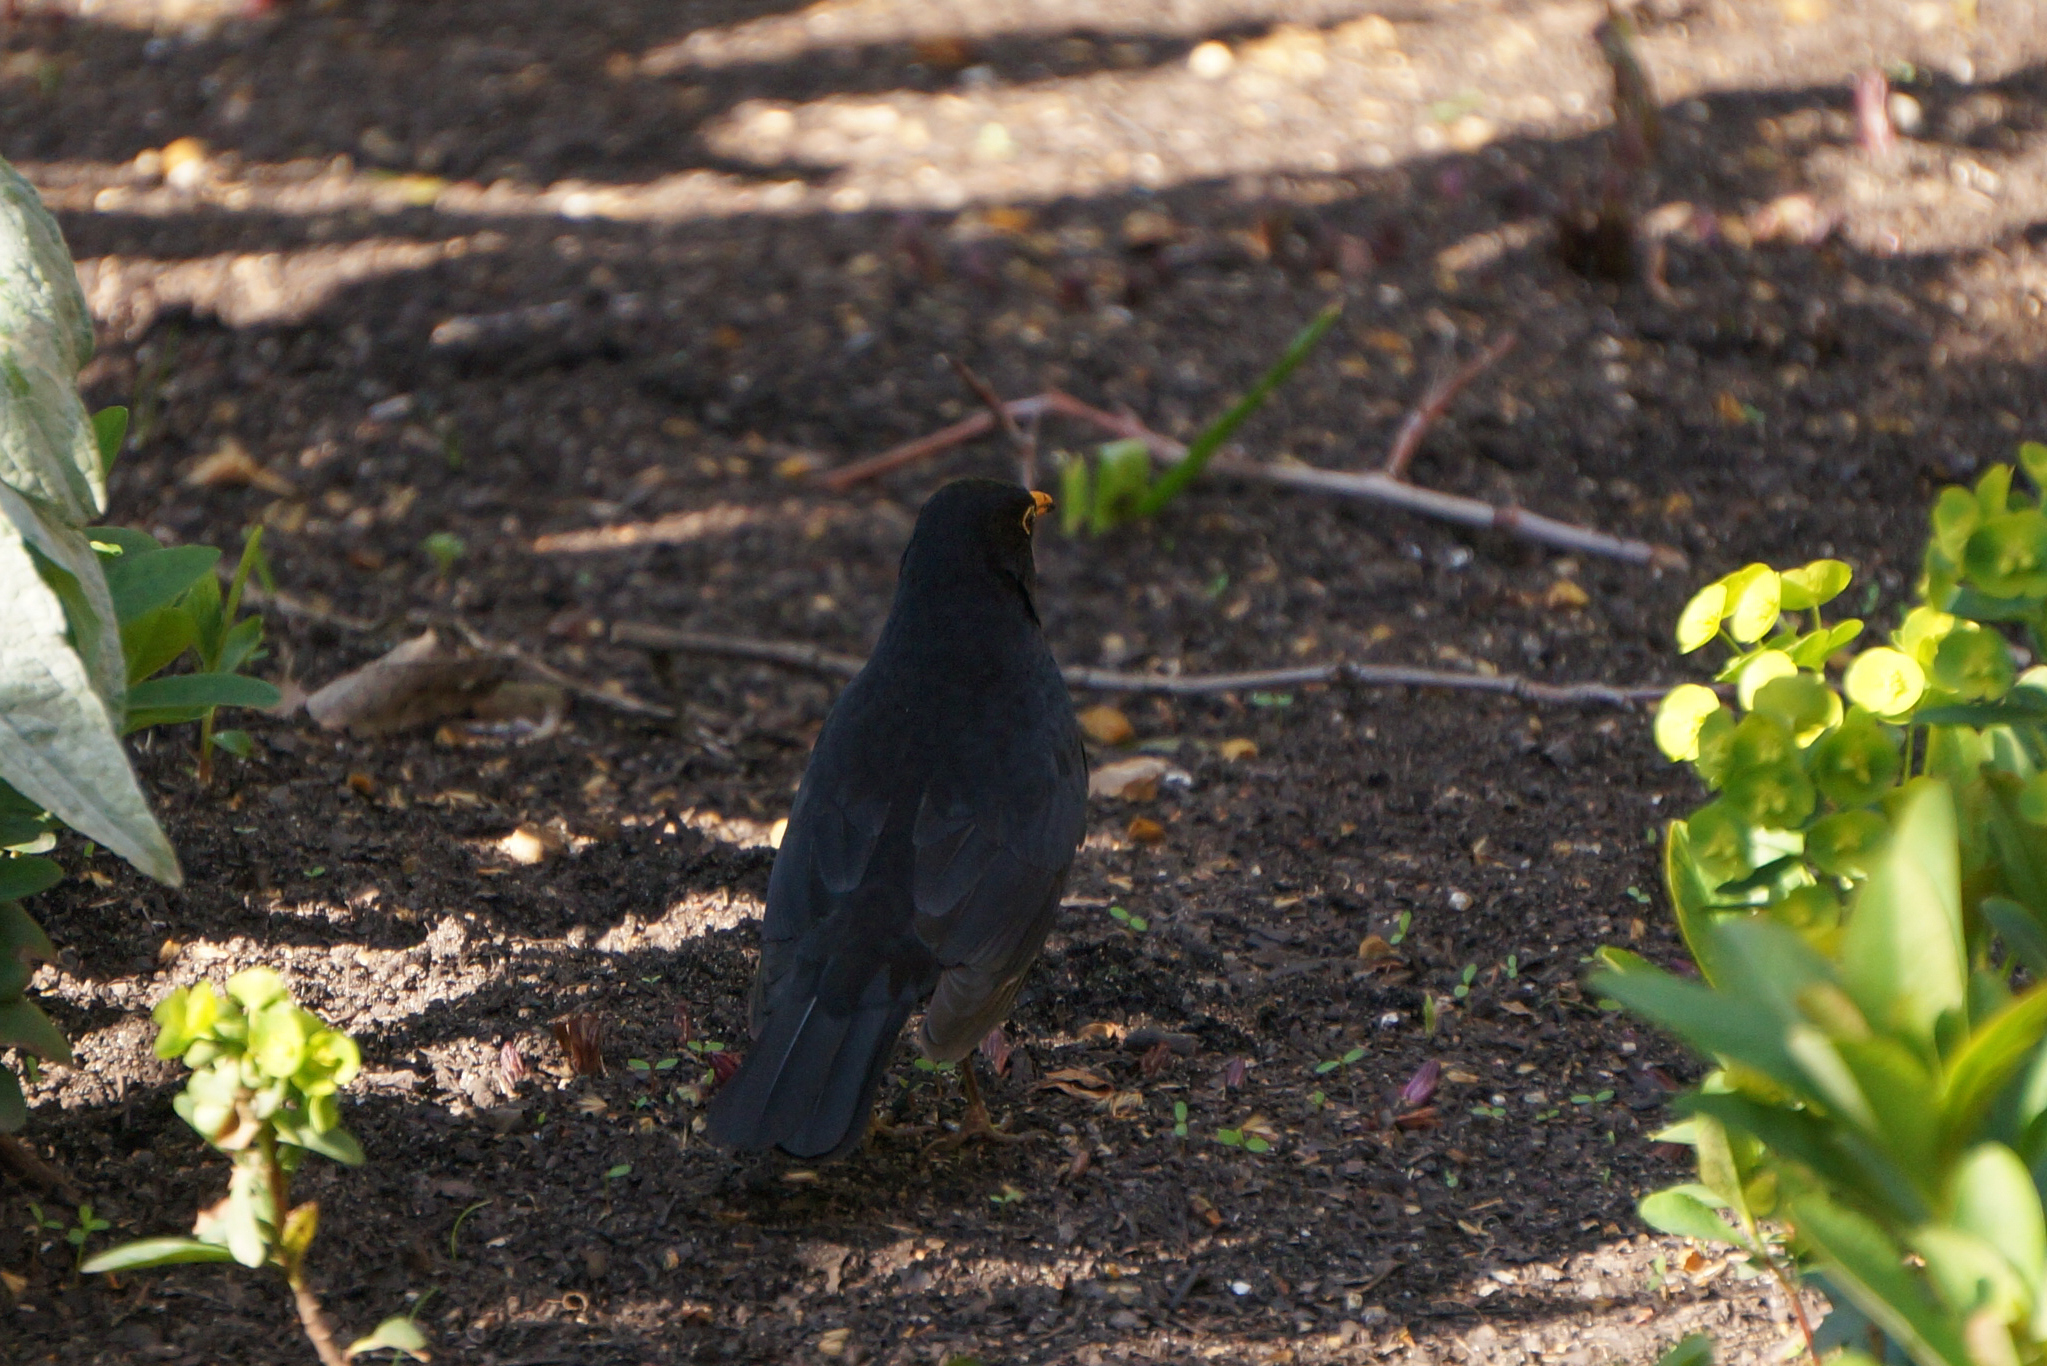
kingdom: Animalia
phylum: Chordata
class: Aves
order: Passeriformes
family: Turdidae
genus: Turdus
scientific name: Turdus merula
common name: Common blackbird
